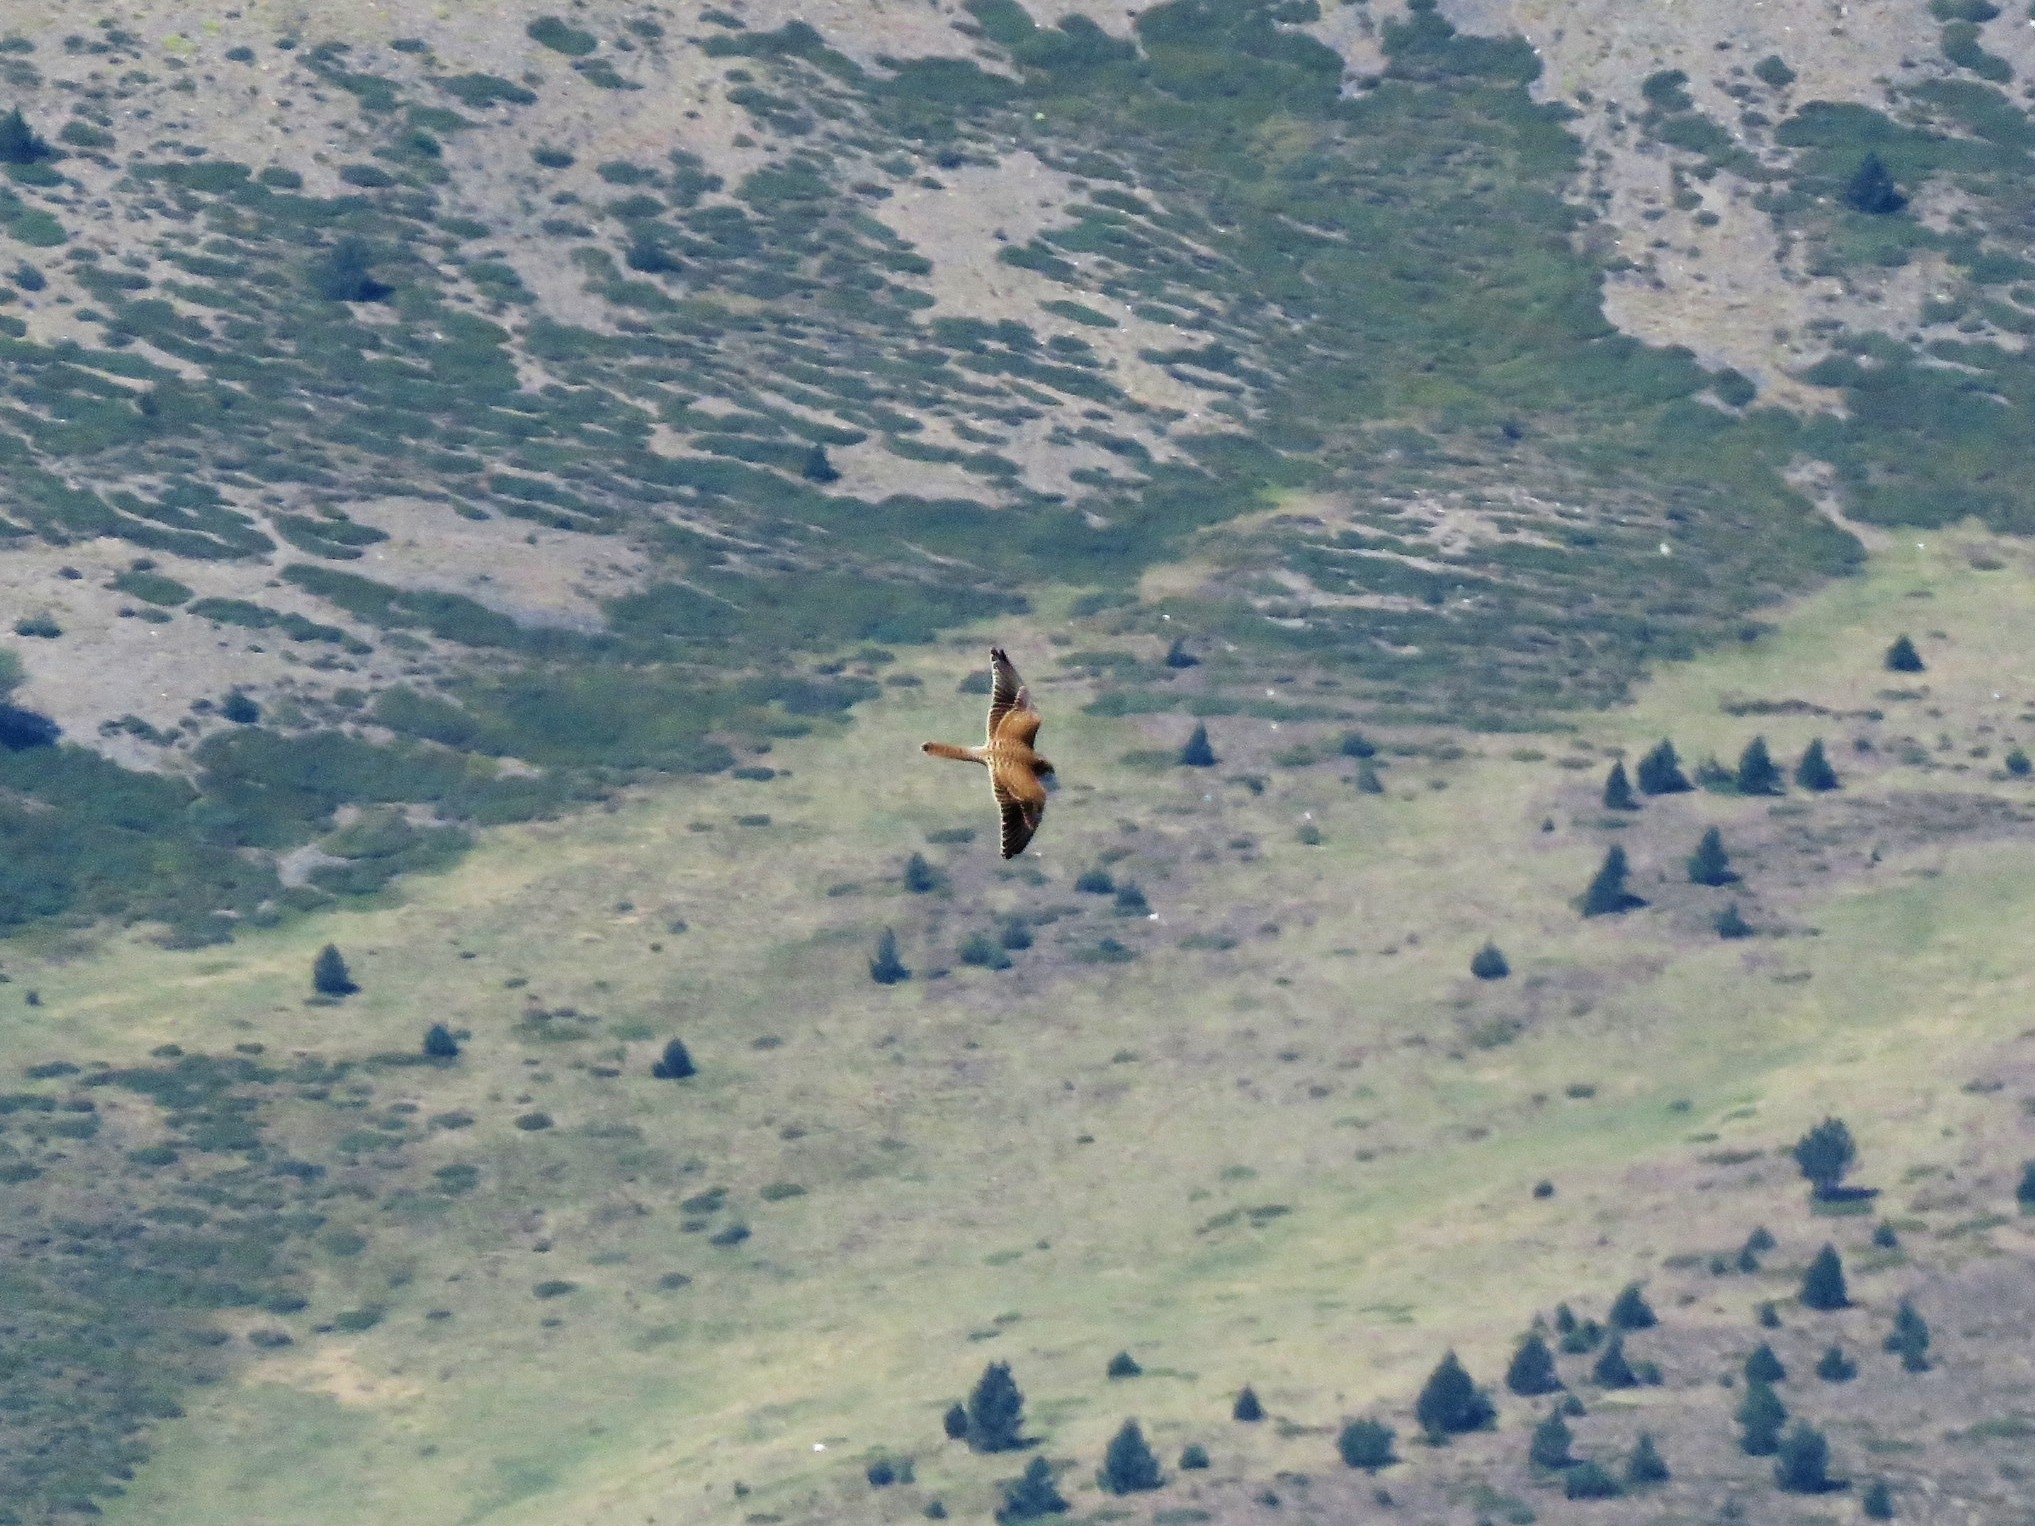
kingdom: Animalia
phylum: Chordata
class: Aves
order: Falconiformes
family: Falconidae
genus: Falco
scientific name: Falco tinnunculus
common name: Common kestrel
